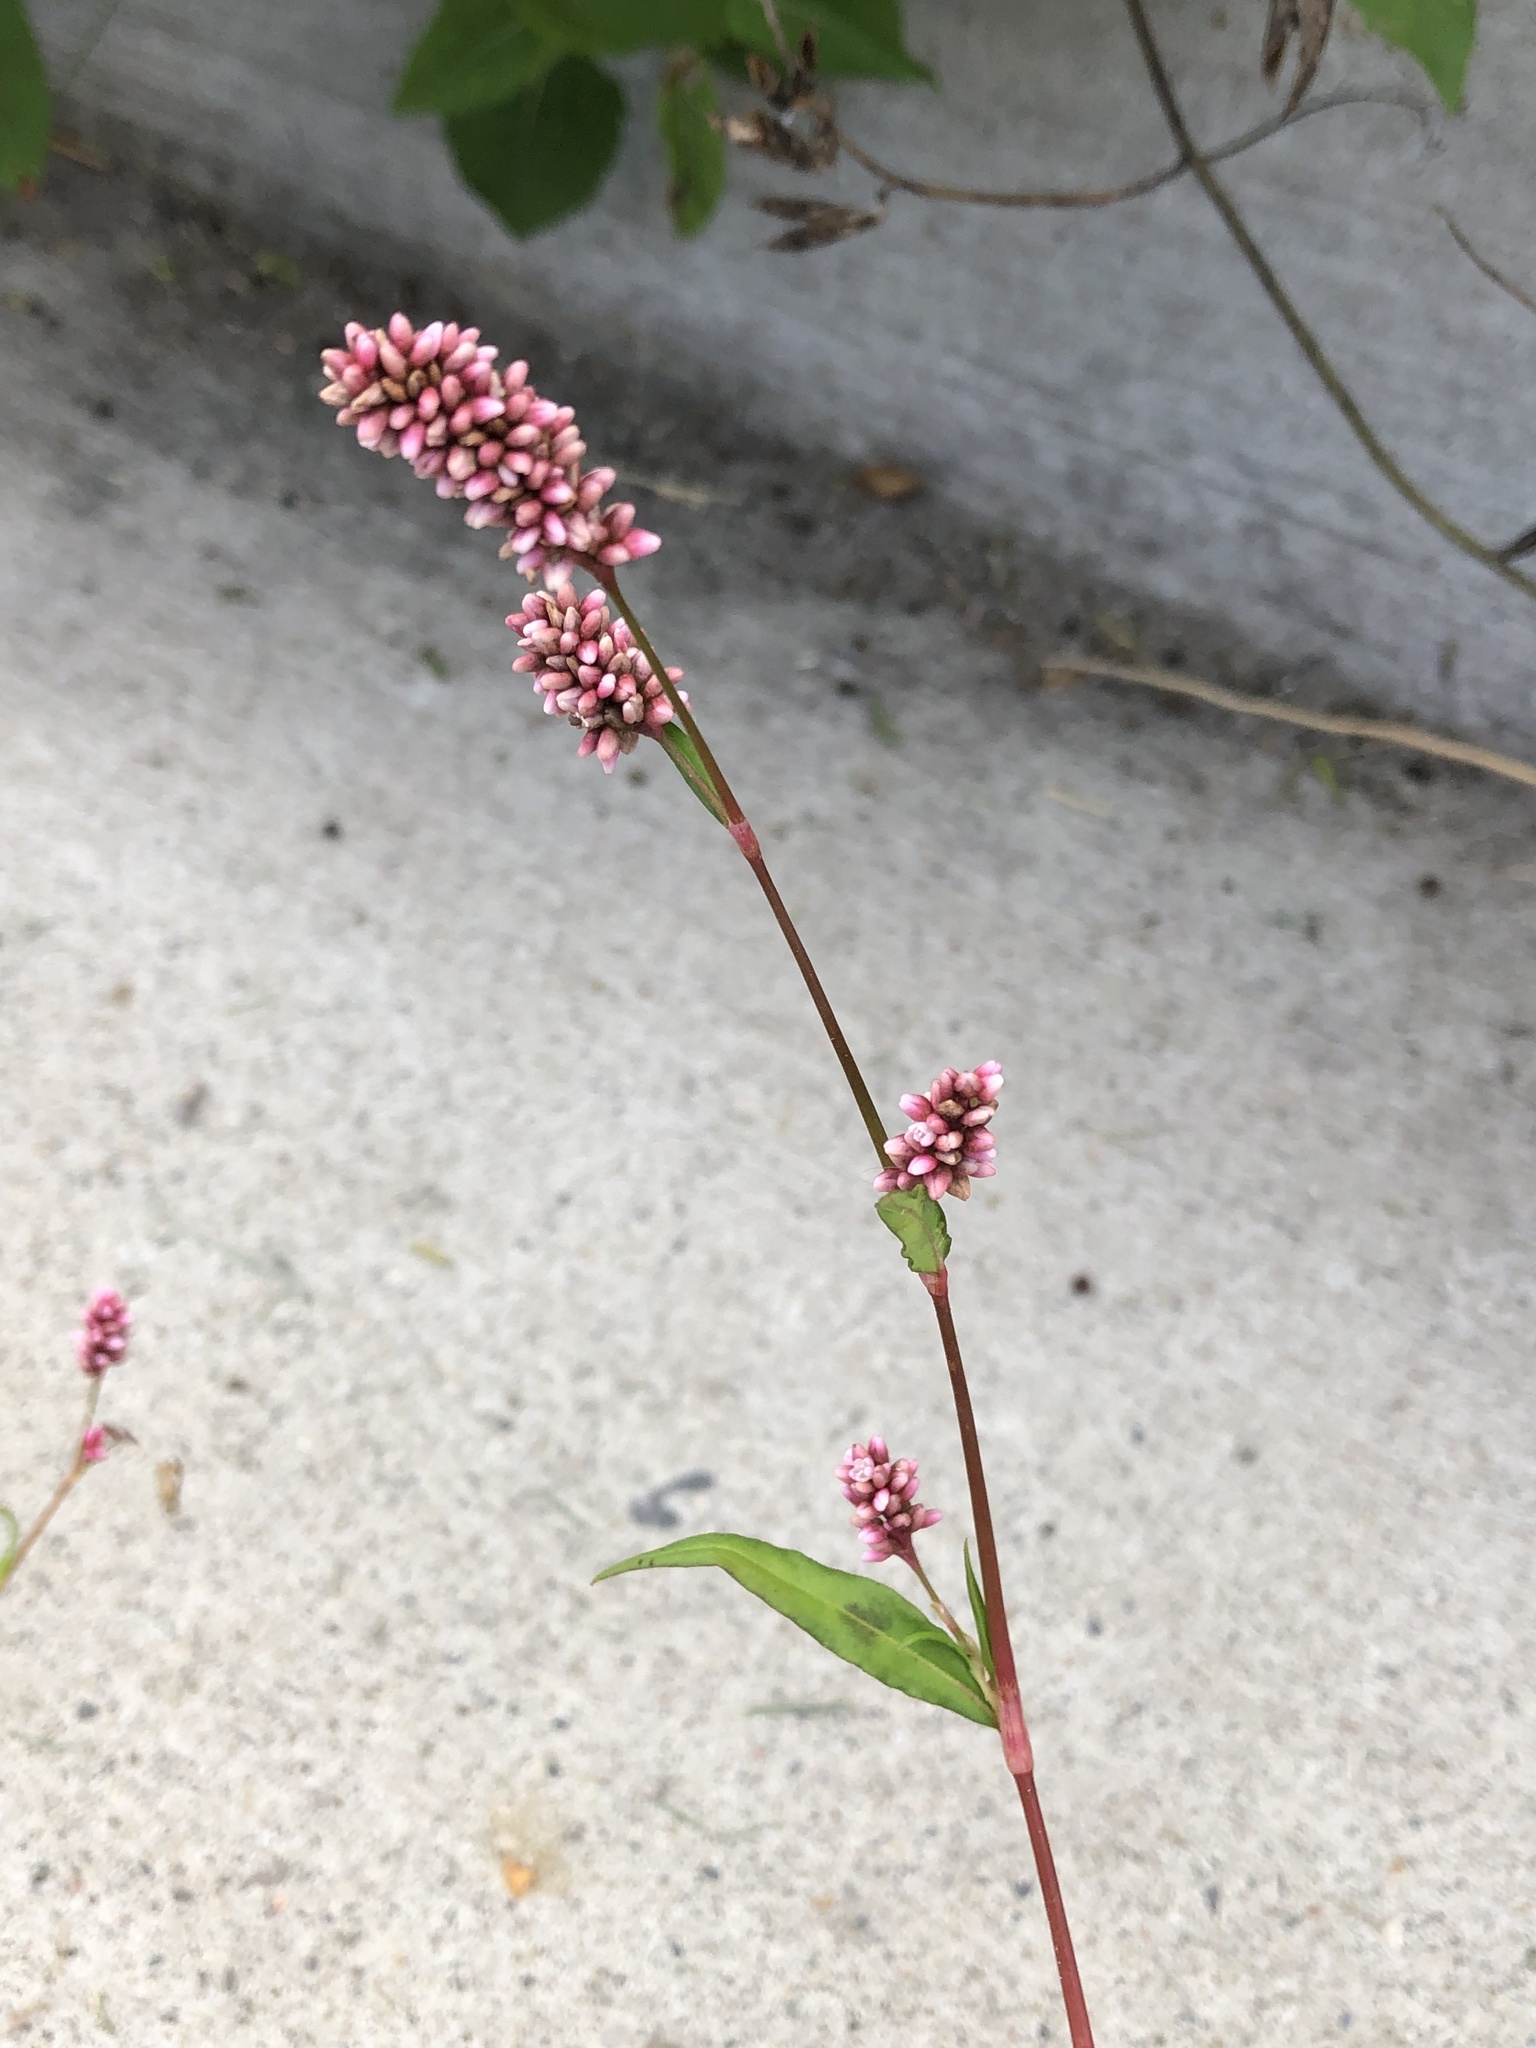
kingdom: Plantae
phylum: Tracheophyta
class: Magnoliopsida
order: Caryophyllales
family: Polygonaceae
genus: Persicaria
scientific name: Persicaria maculosa
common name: Redshank
